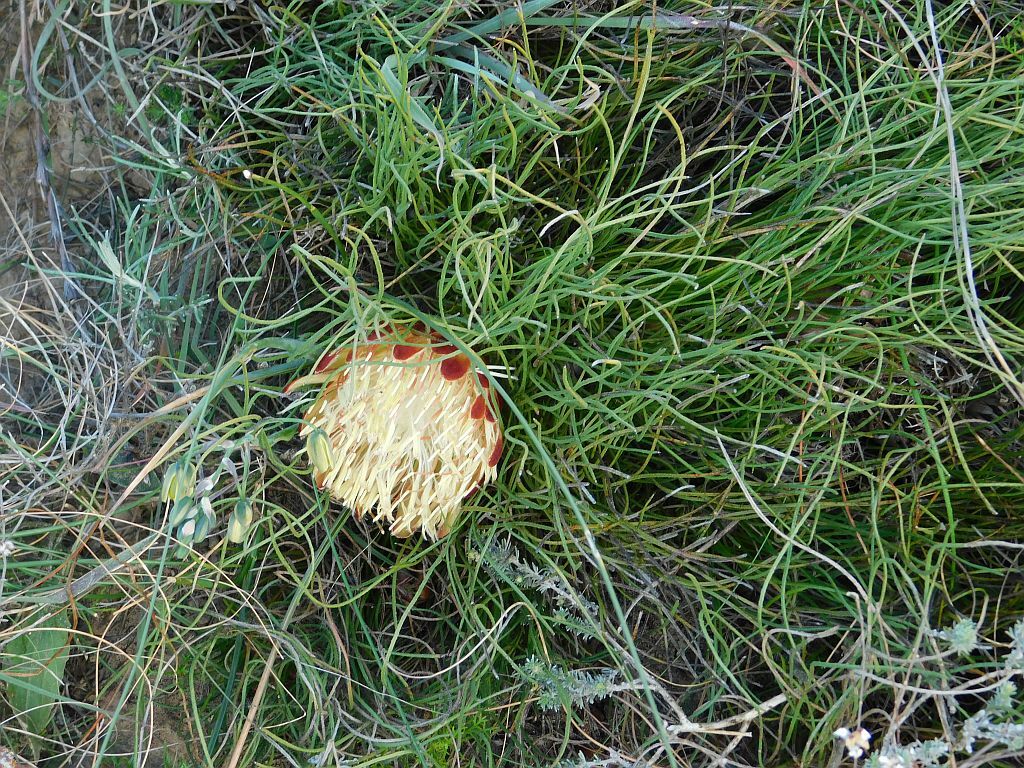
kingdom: Plantae
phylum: Tracheophyta
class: Magnoliopsida
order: Proteales
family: Proteaceae
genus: Protea
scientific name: Protea restionifolia
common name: Reed-leaf sugarbush
